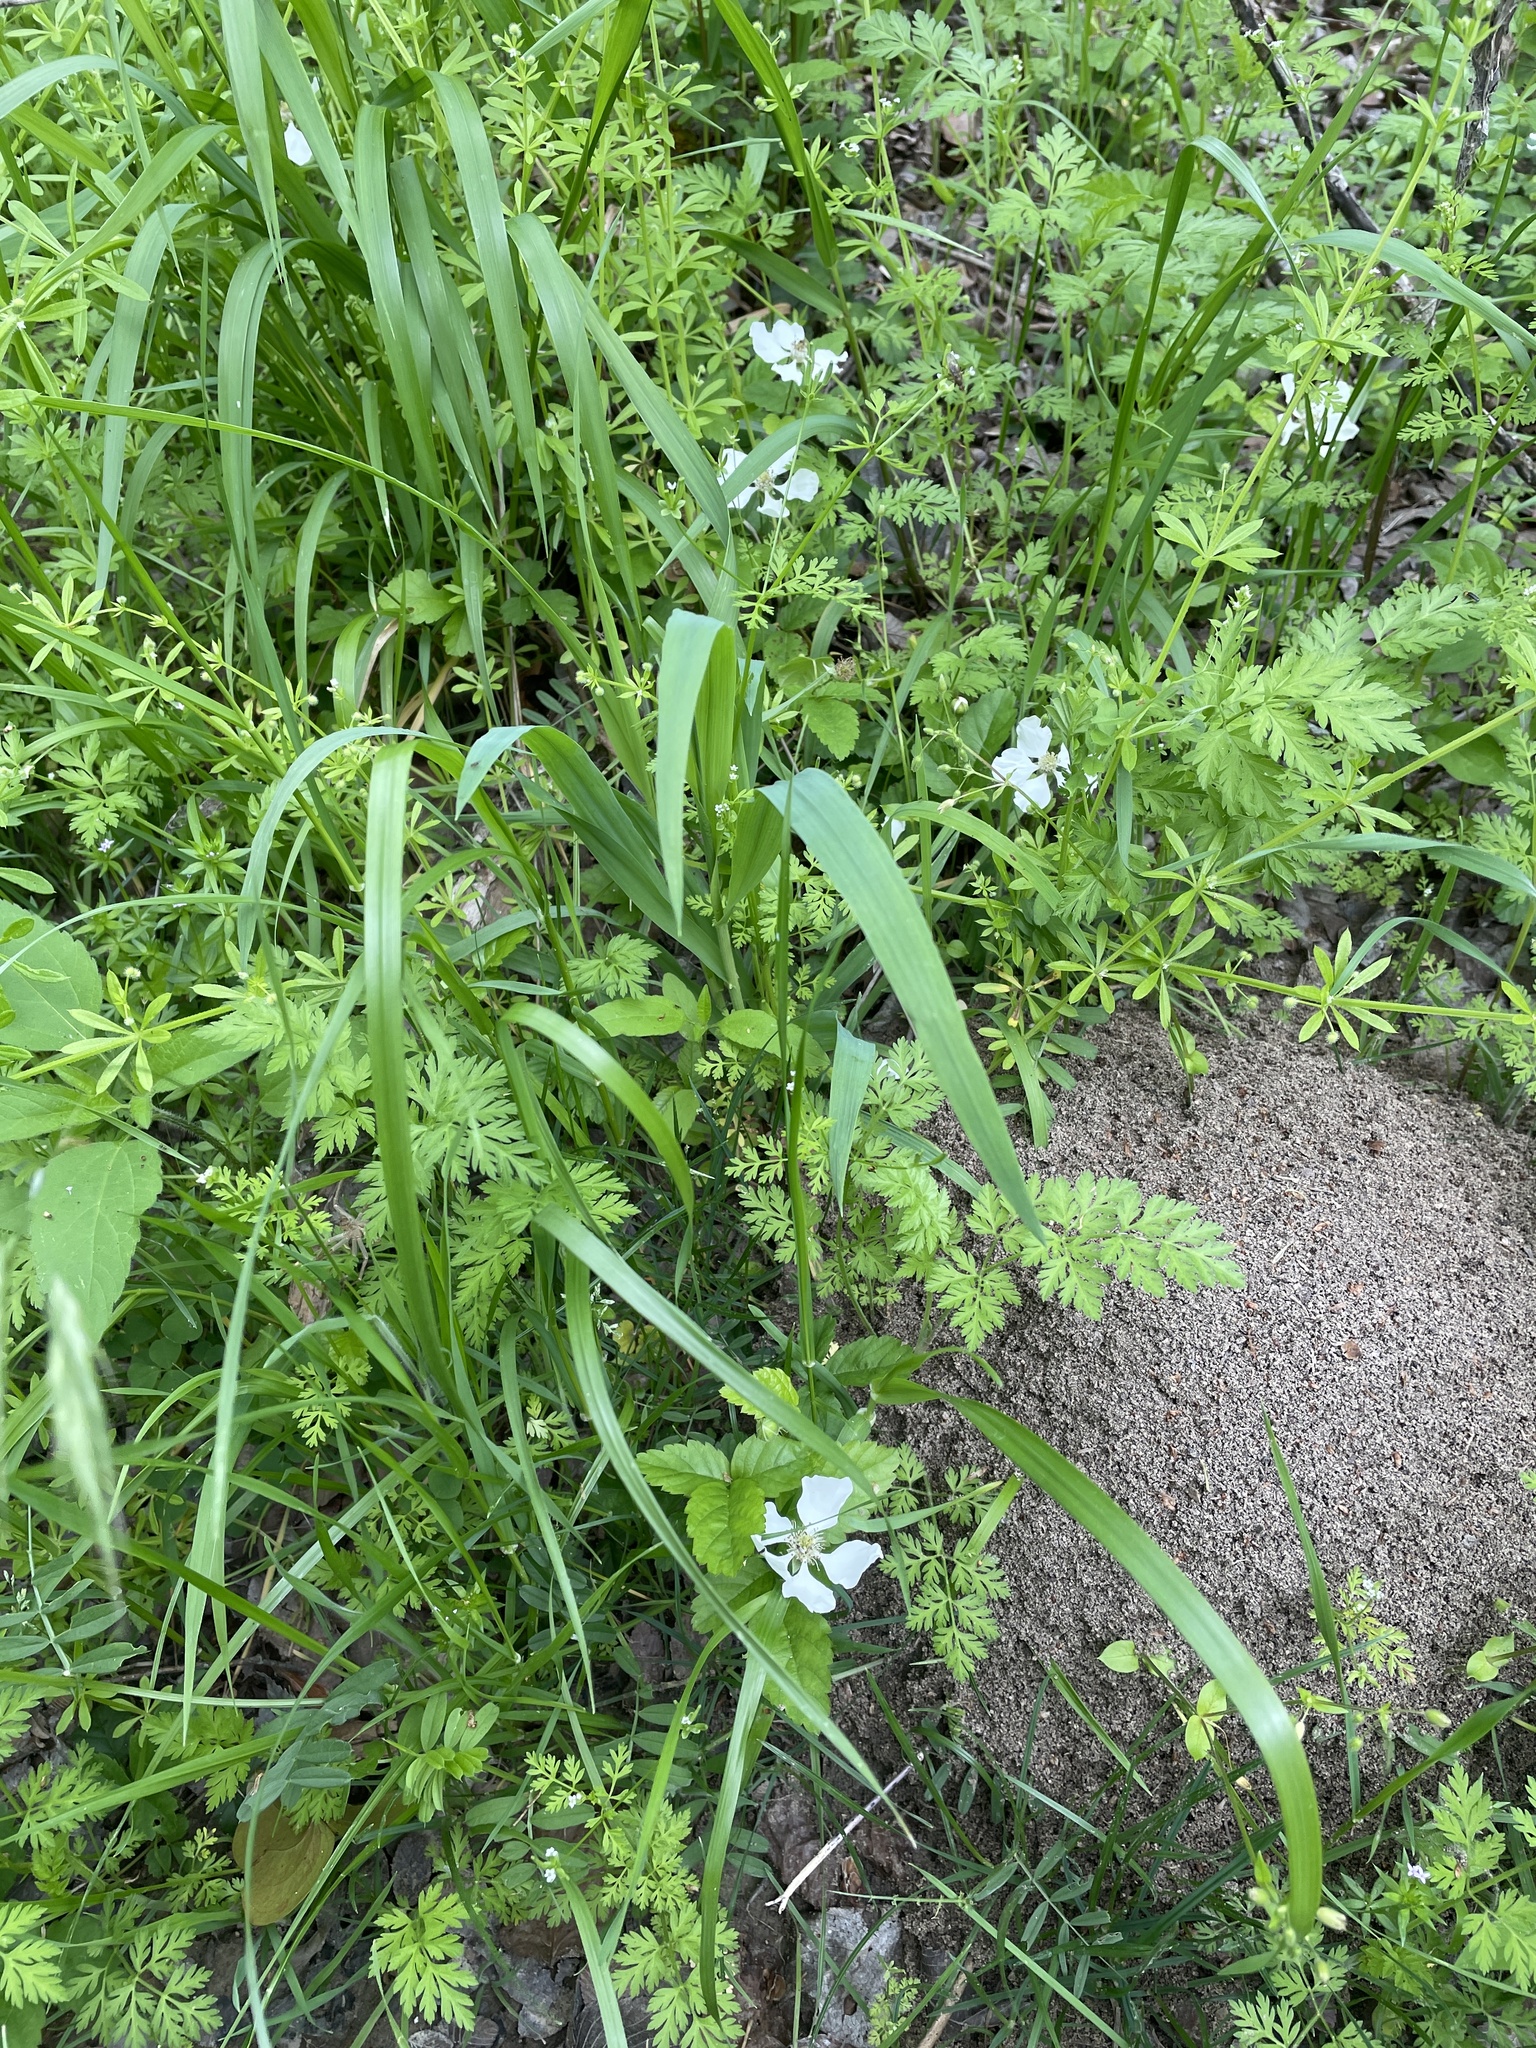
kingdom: Plantae
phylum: Tracheophyta
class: Magnoliopsida
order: Rosales
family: Rosaceae
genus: Rubus
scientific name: Rubus trivialis
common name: Southern dewberry
